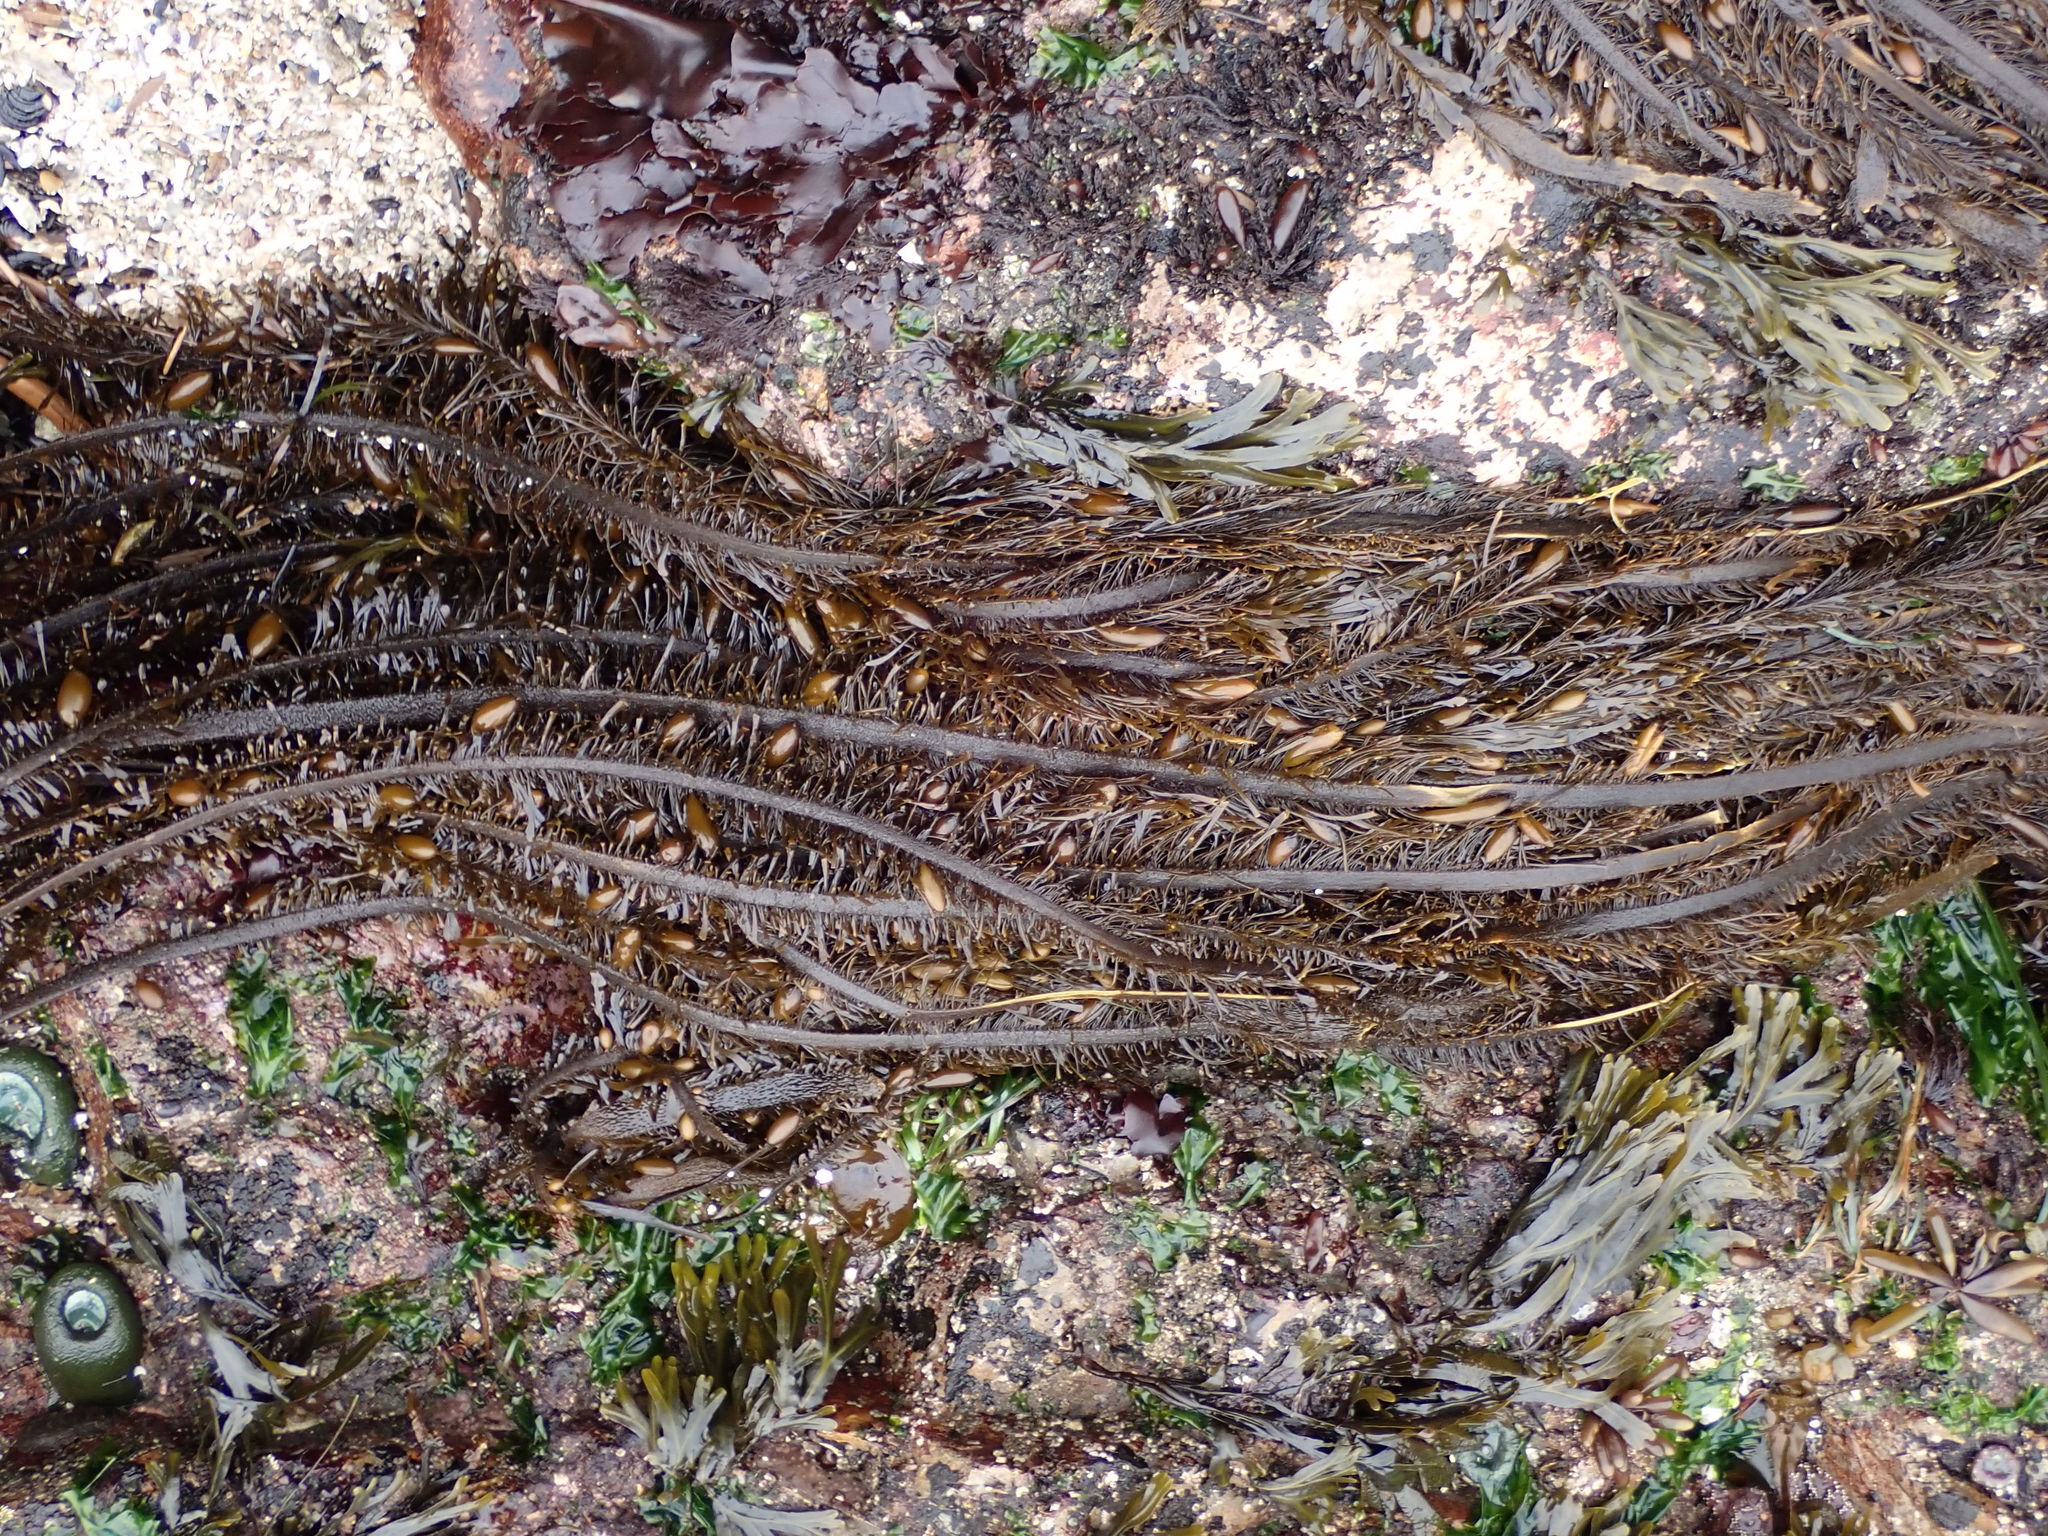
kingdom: Chromista
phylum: Ochrophyta
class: Phaeophyceae
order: Laminariales
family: Lessoniaceae
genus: Egregia
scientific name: Egregia menziesii
